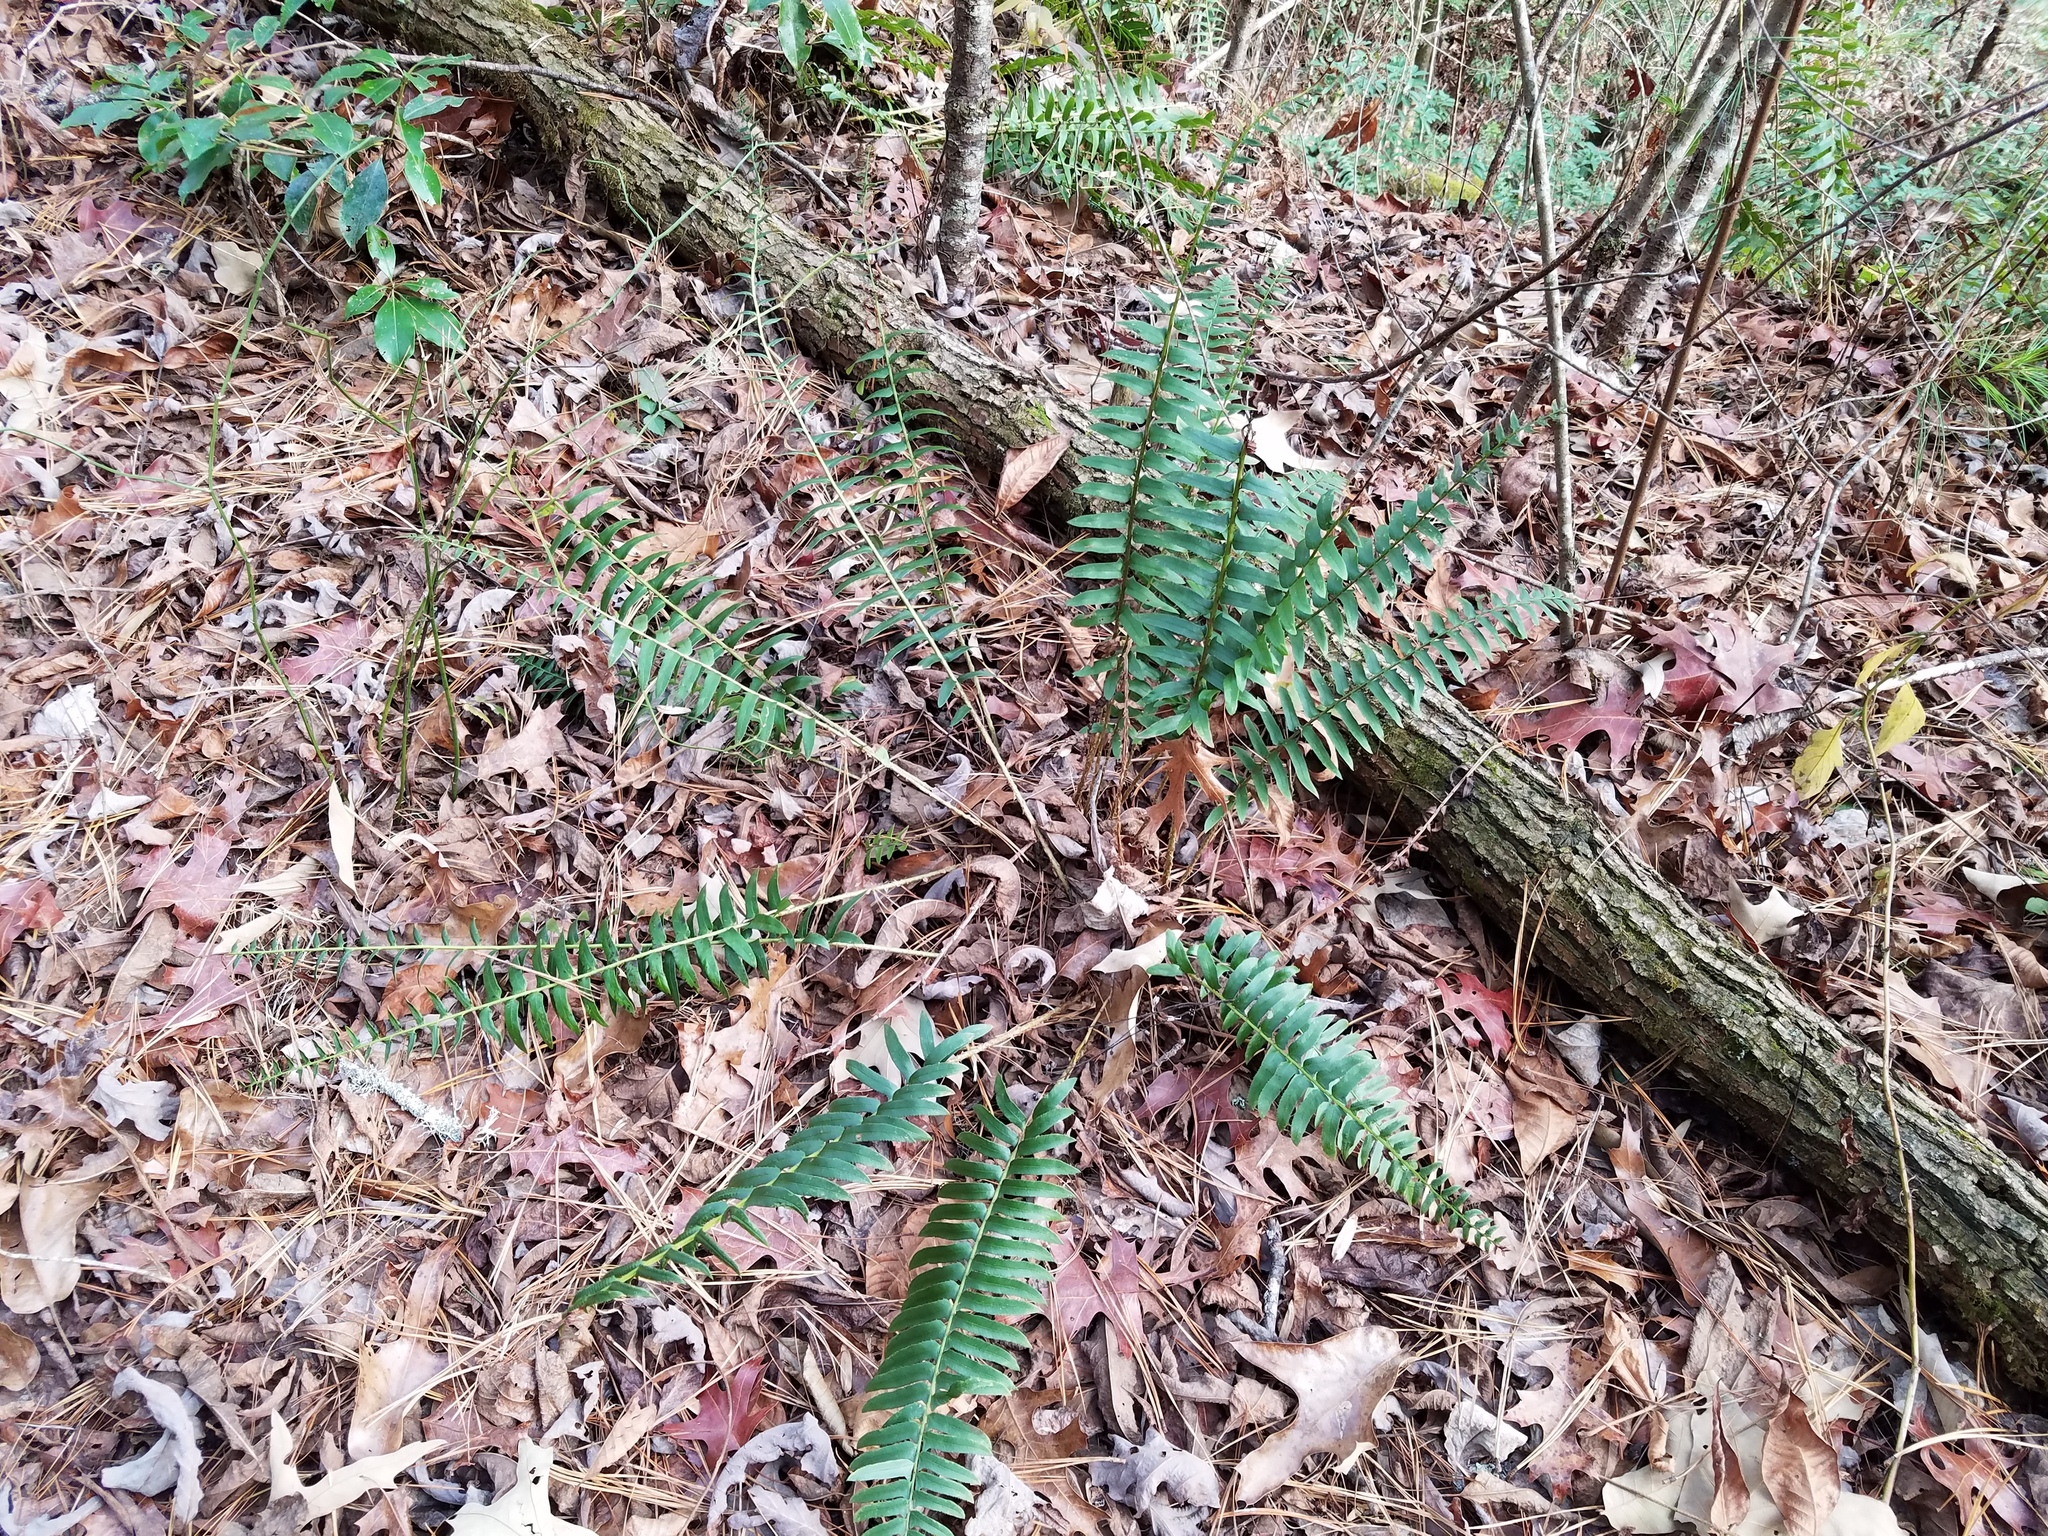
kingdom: Plantae
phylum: Tracheophyta
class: Polypodiopsida
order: Polypodiales
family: Dryopteridaceae
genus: Polystichum
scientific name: Polystichum acrostichoides
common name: Christmas fern
